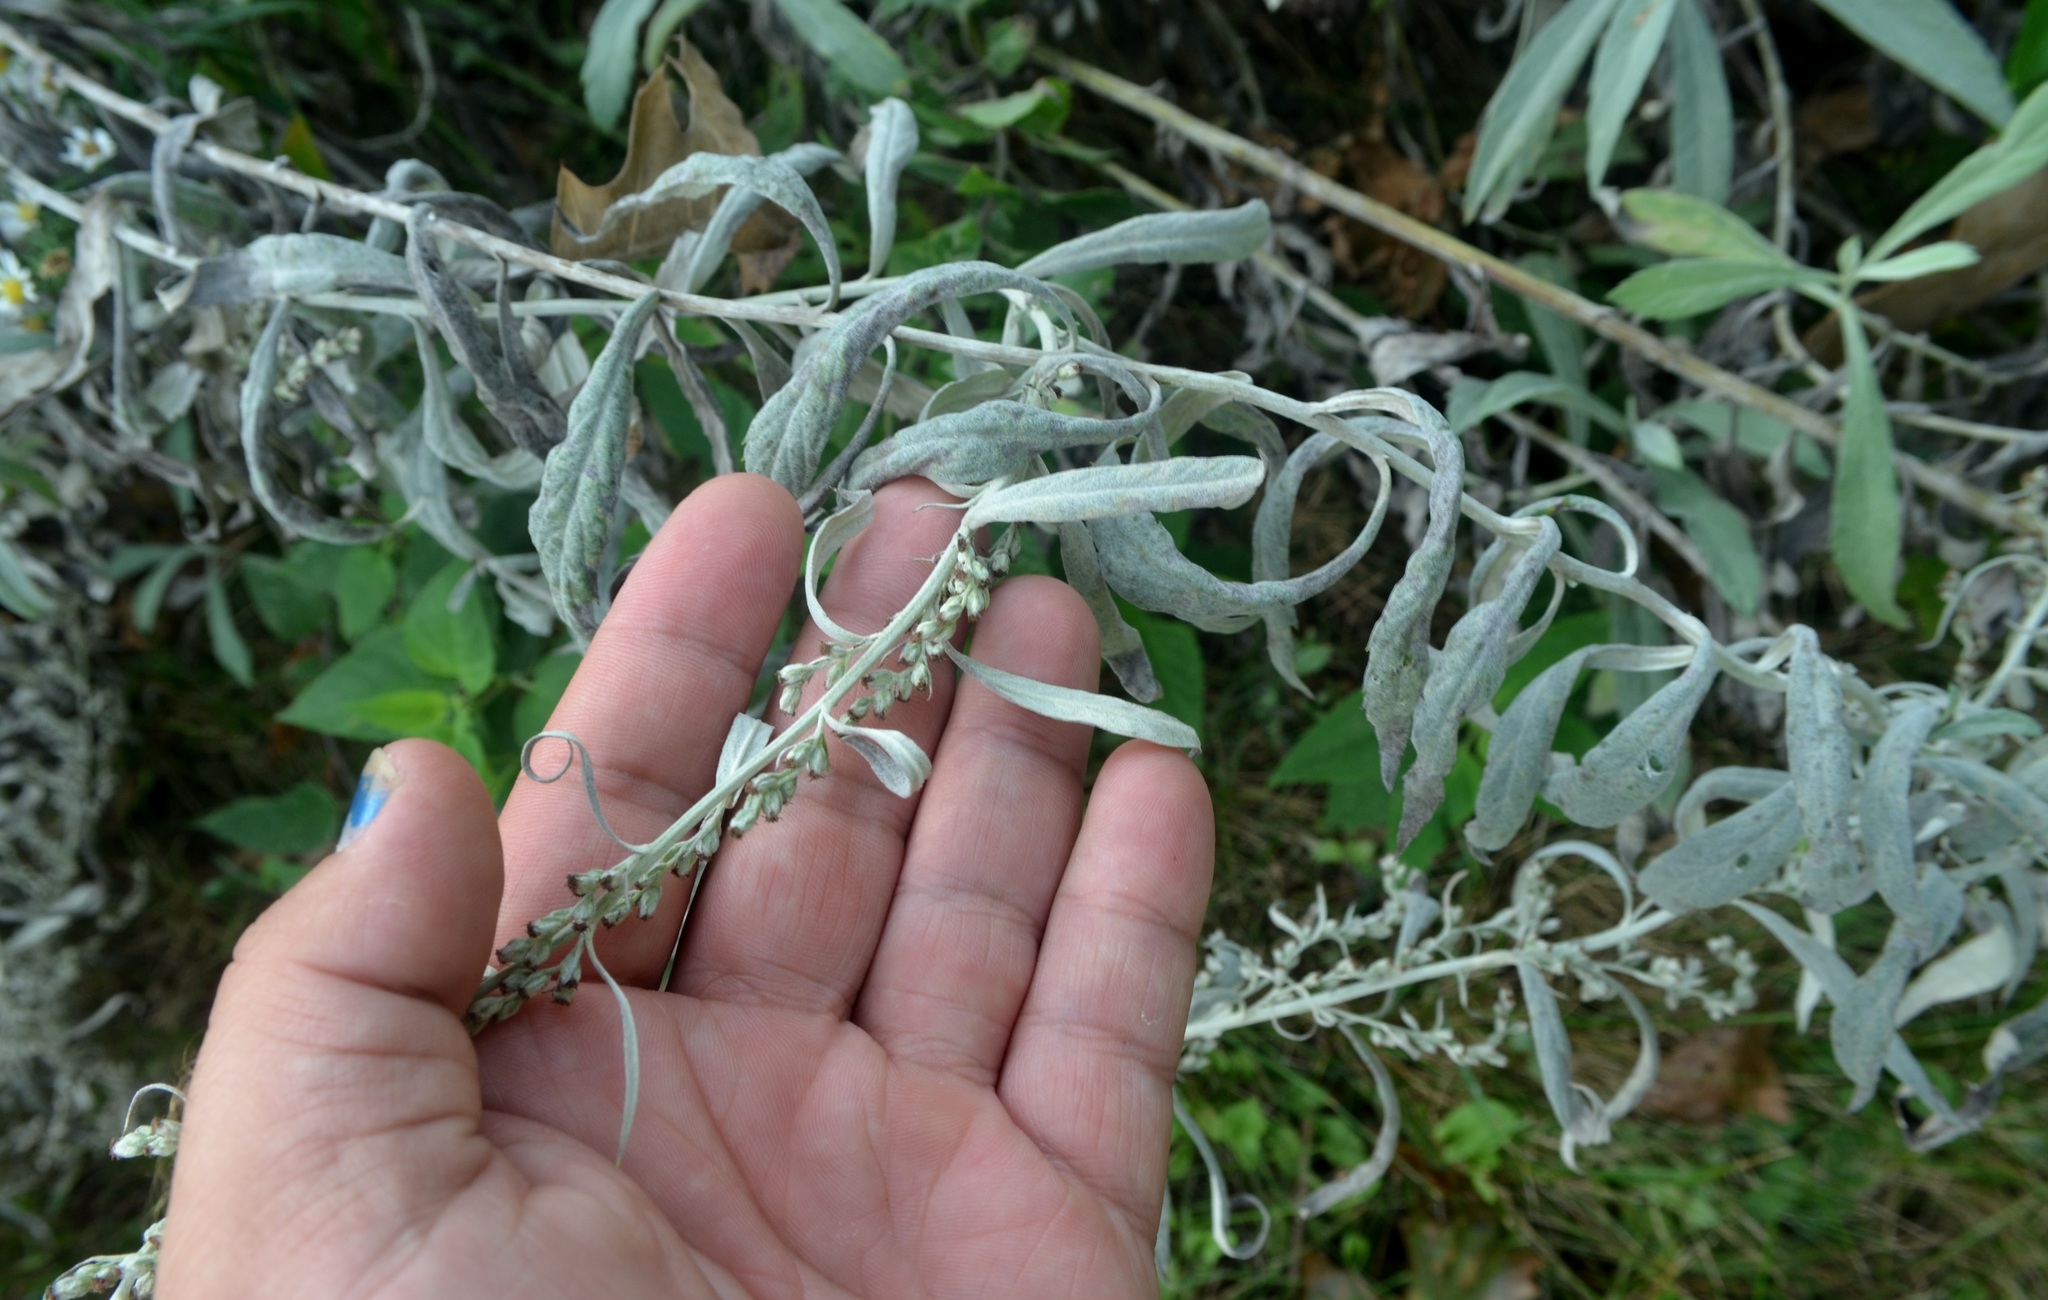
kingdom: Plantae
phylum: Tracheophyta
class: Magnoliopsida
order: Asterales
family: Asteraceae
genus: Artemisia
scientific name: Artemisia ludoviciana
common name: Western mugwort
